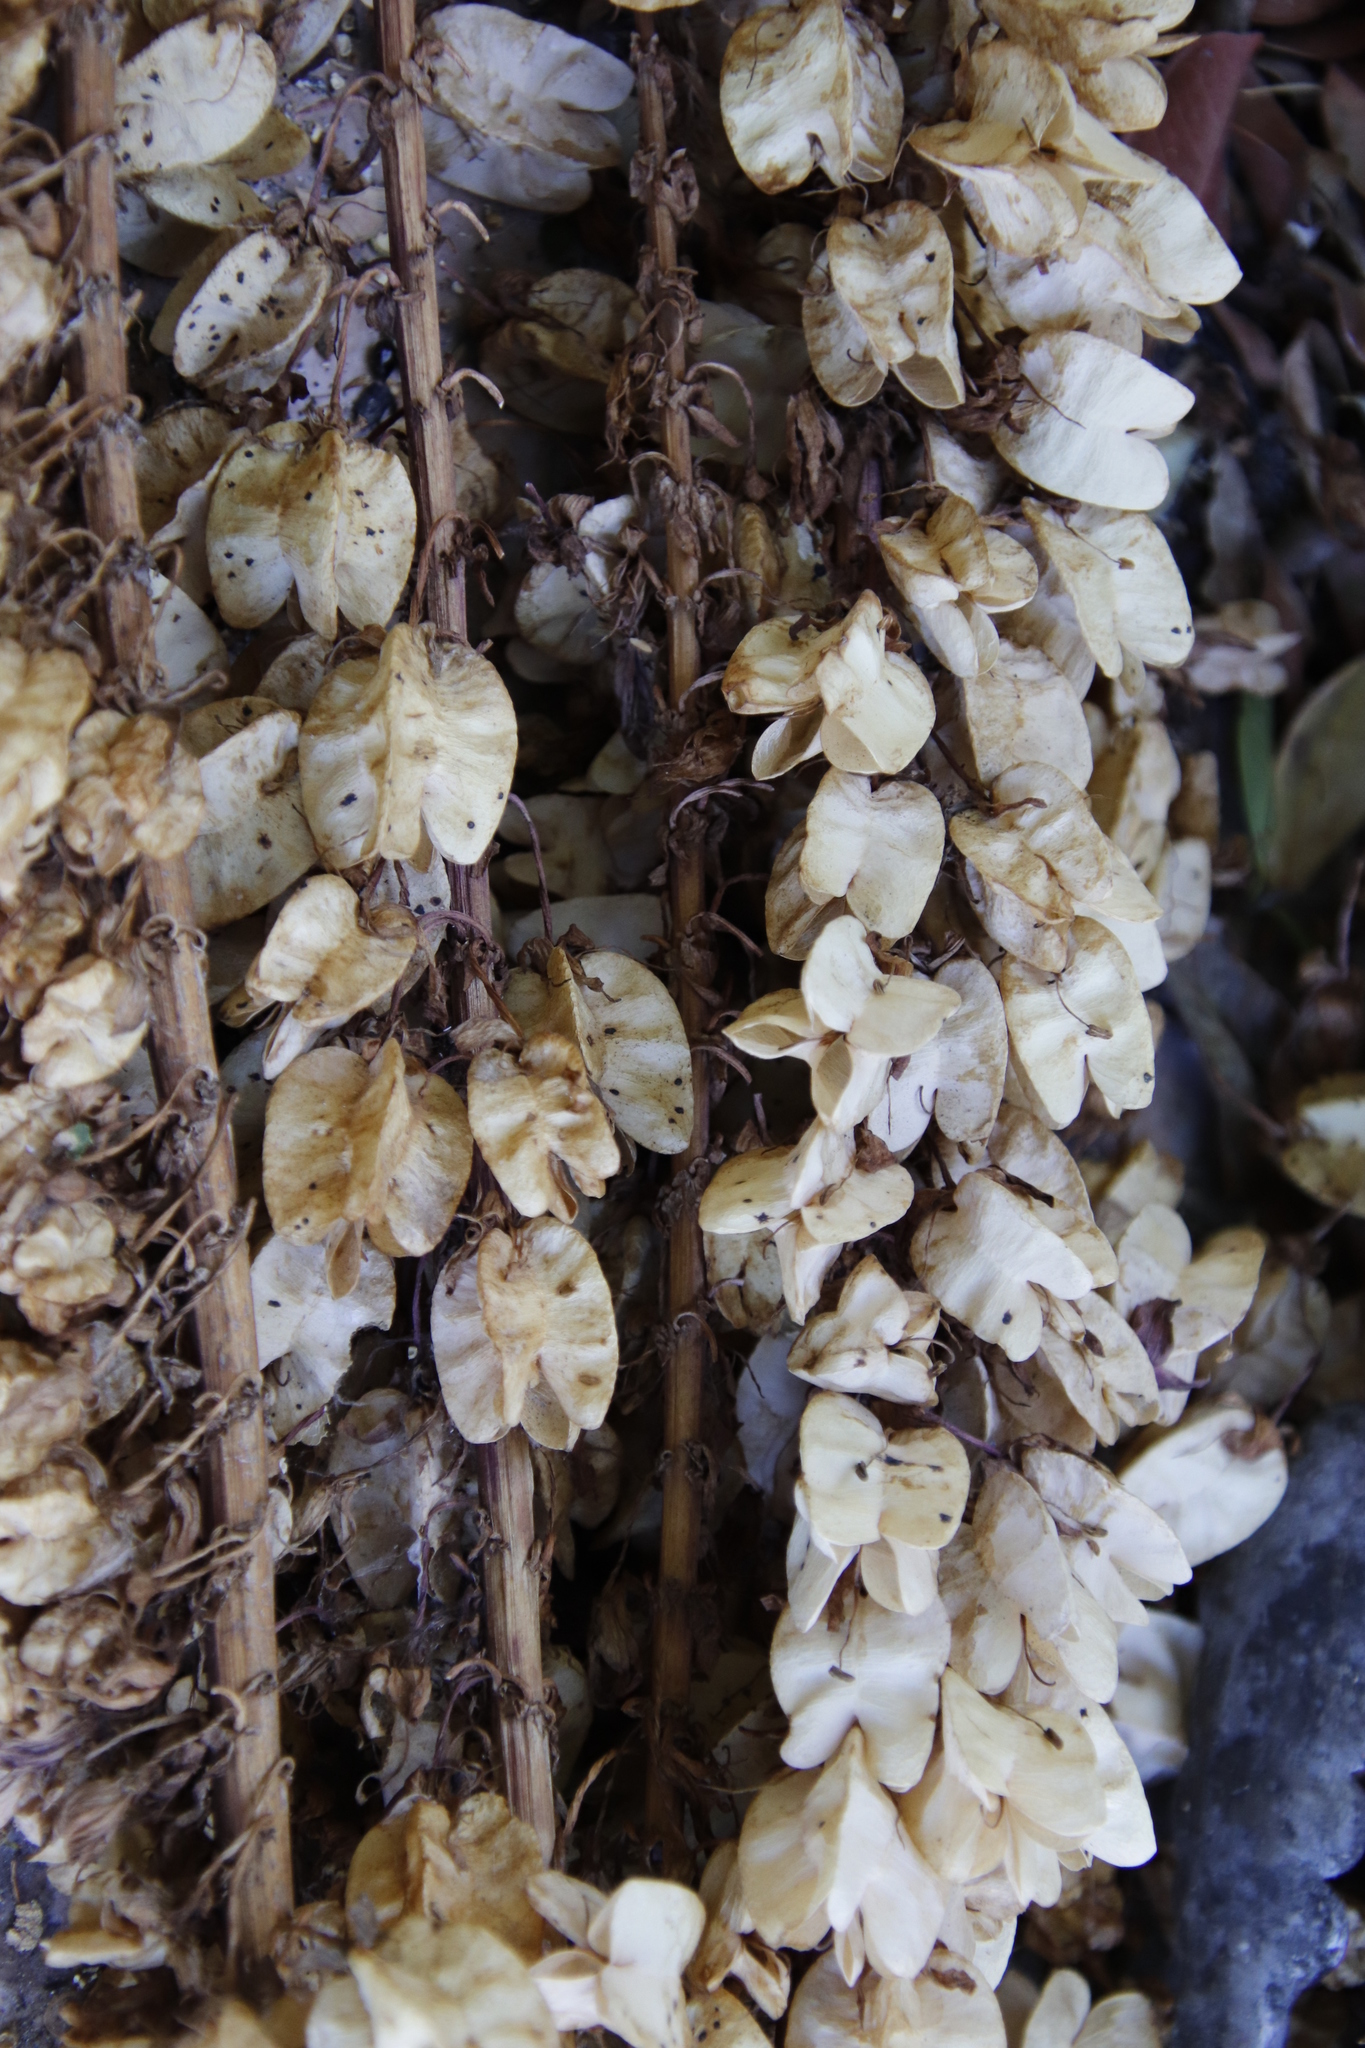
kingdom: Plantae
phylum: Tracheophyta
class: Magnoliopsida
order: Geraniales
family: Melianthaceae
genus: Melianthus
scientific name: Melianthus major
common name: Honey-flower
